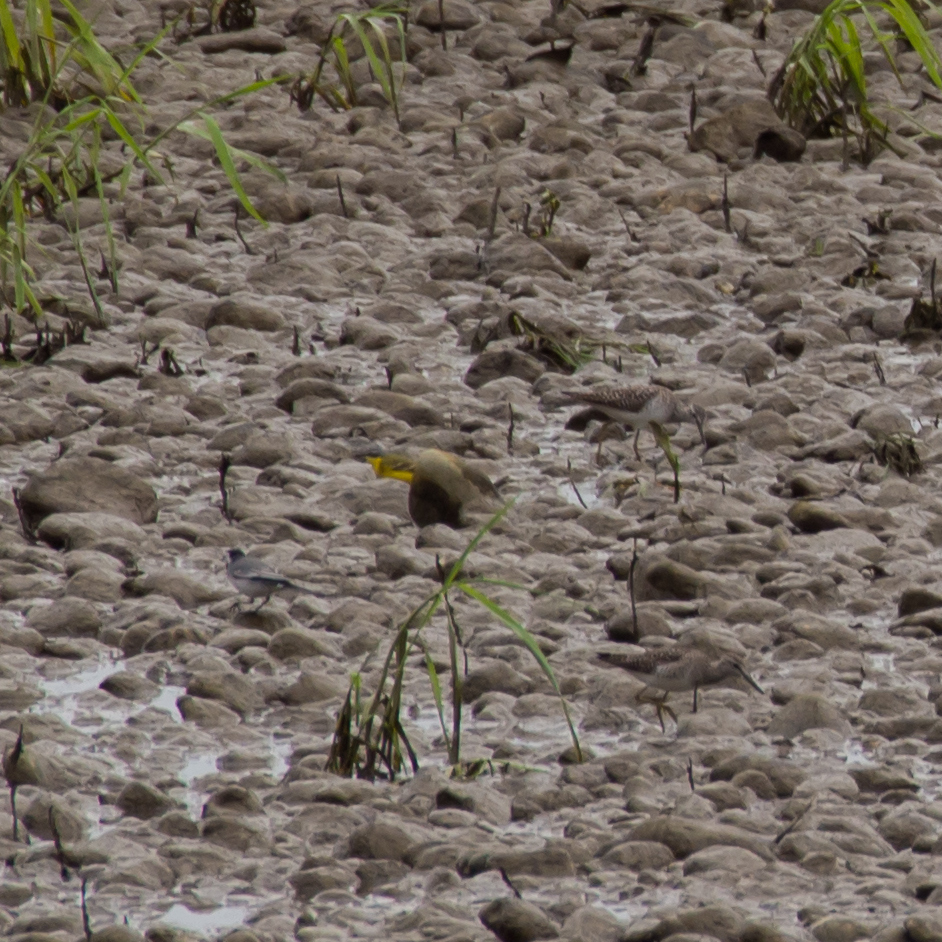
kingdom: Animalia
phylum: Chordata
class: Aves
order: Passeriformes
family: Motacillidae
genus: Motacilla
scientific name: Motacilla flava
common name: Western yellow wagtail
